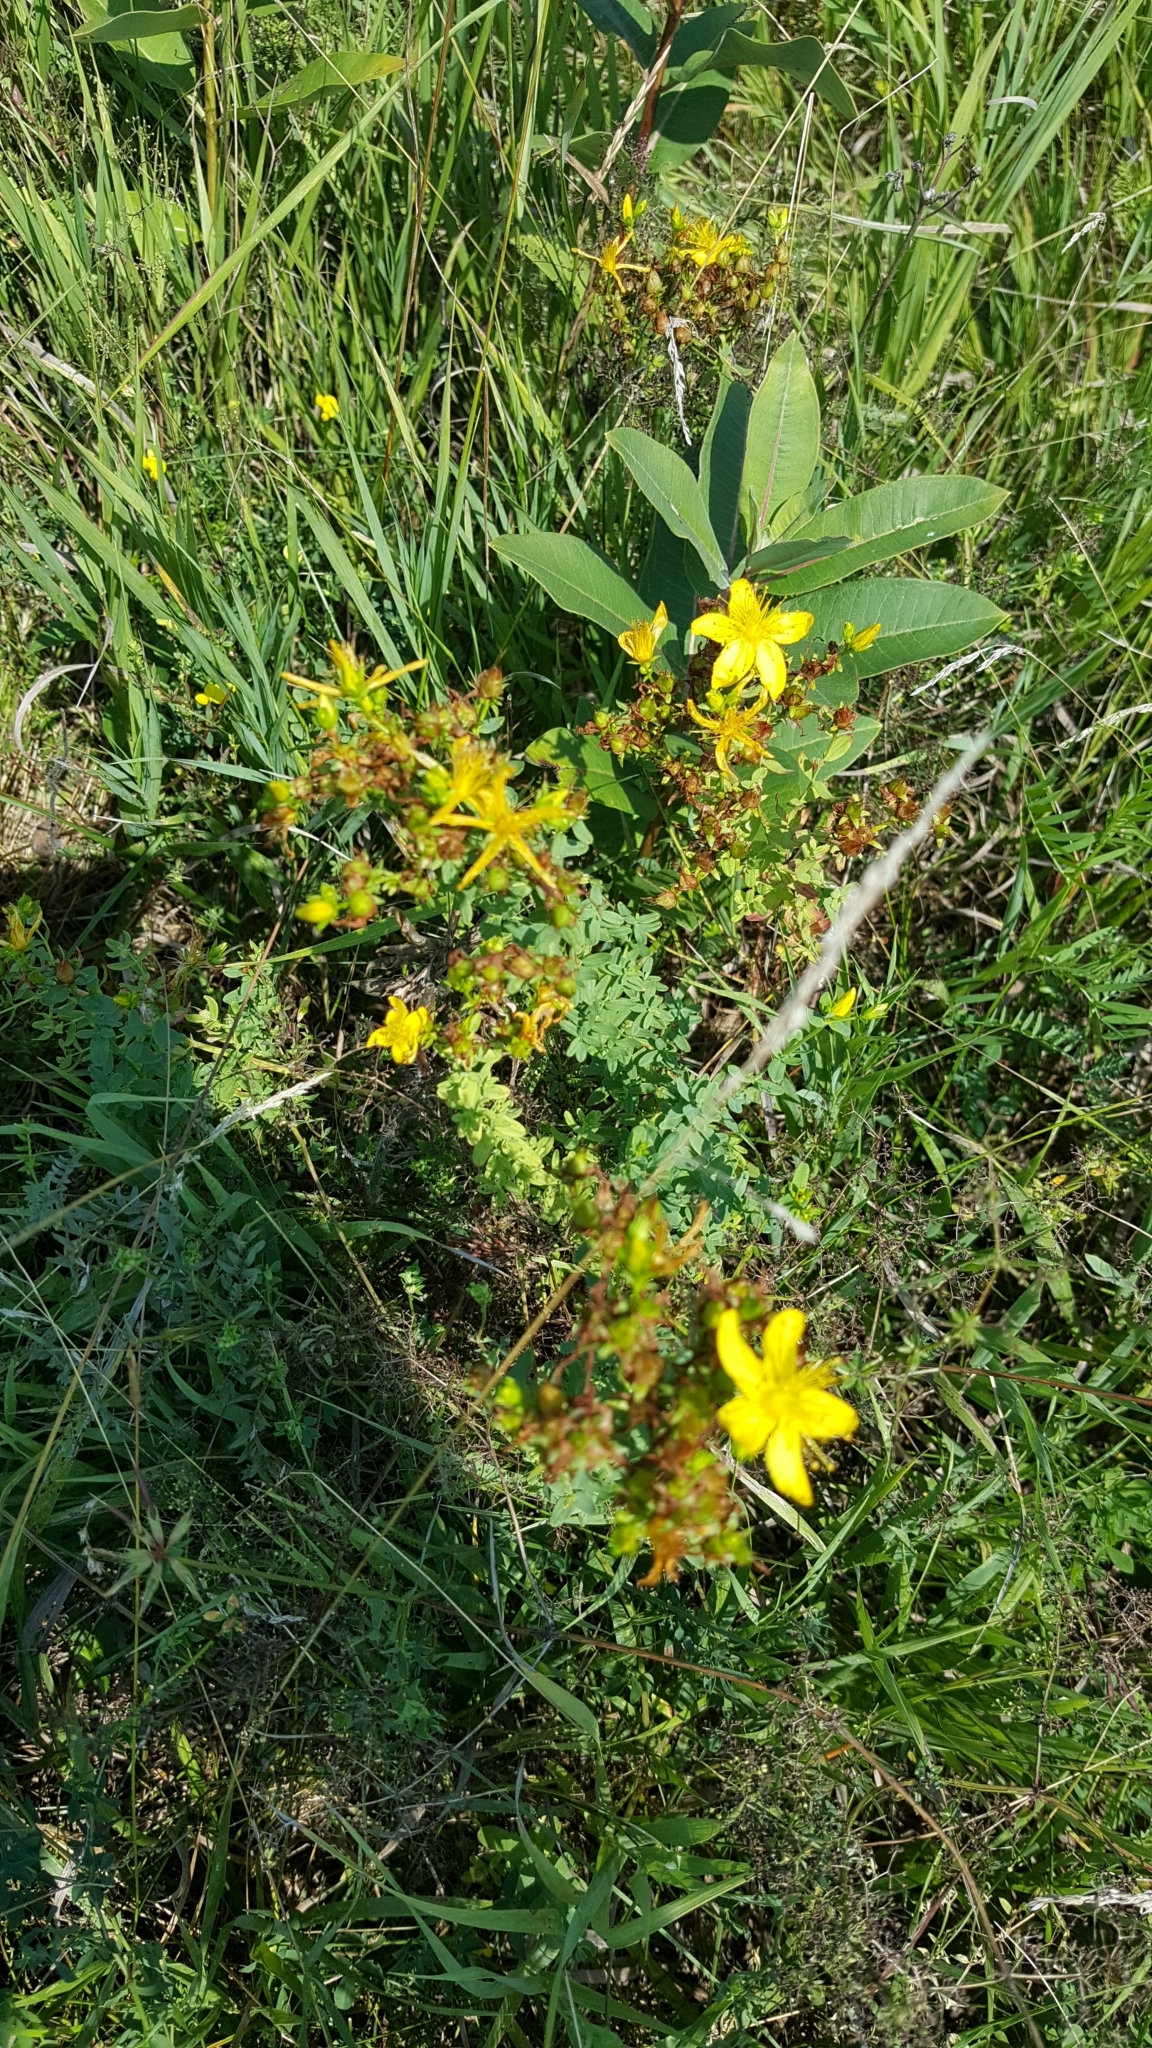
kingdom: Plantae
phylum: Tracheophyta
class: Magnoliopsida
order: Malpighiales
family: Hypericaceae
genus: Hypericum
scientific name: Hypericum perforatum
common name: Common st. johnswort
